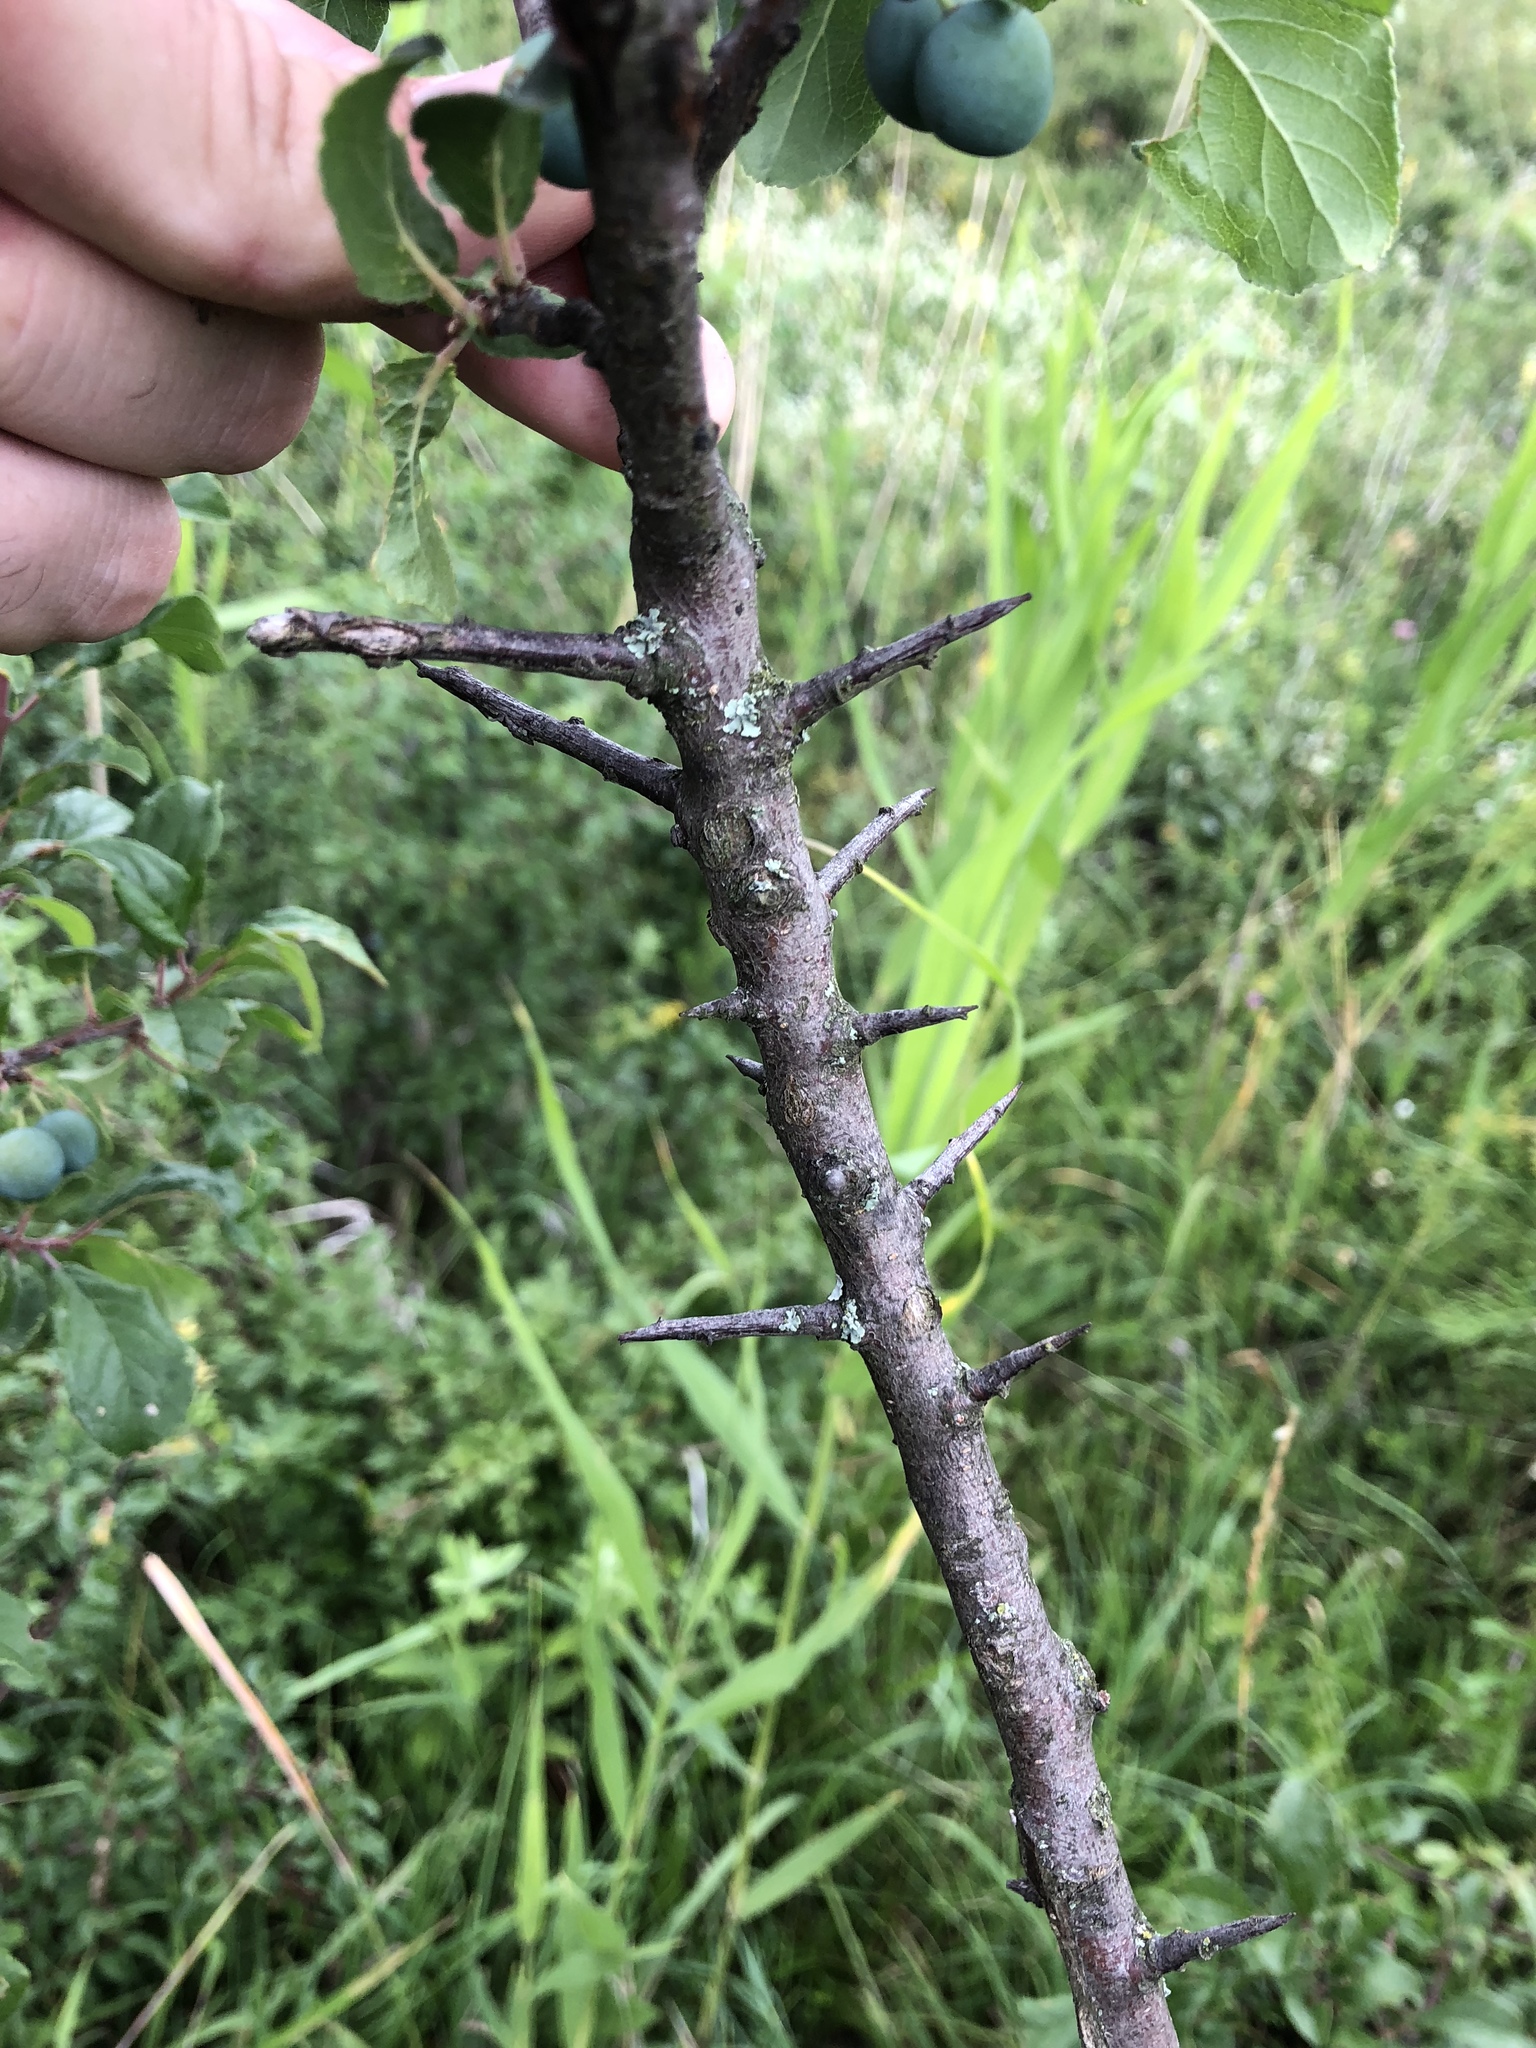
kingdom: Plantae
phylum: Tracheophyta
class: Magnoliopsida
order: Rosales
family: Rosaceae
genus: Prunus
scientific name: Prunus spinosa
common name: Blackthorn
